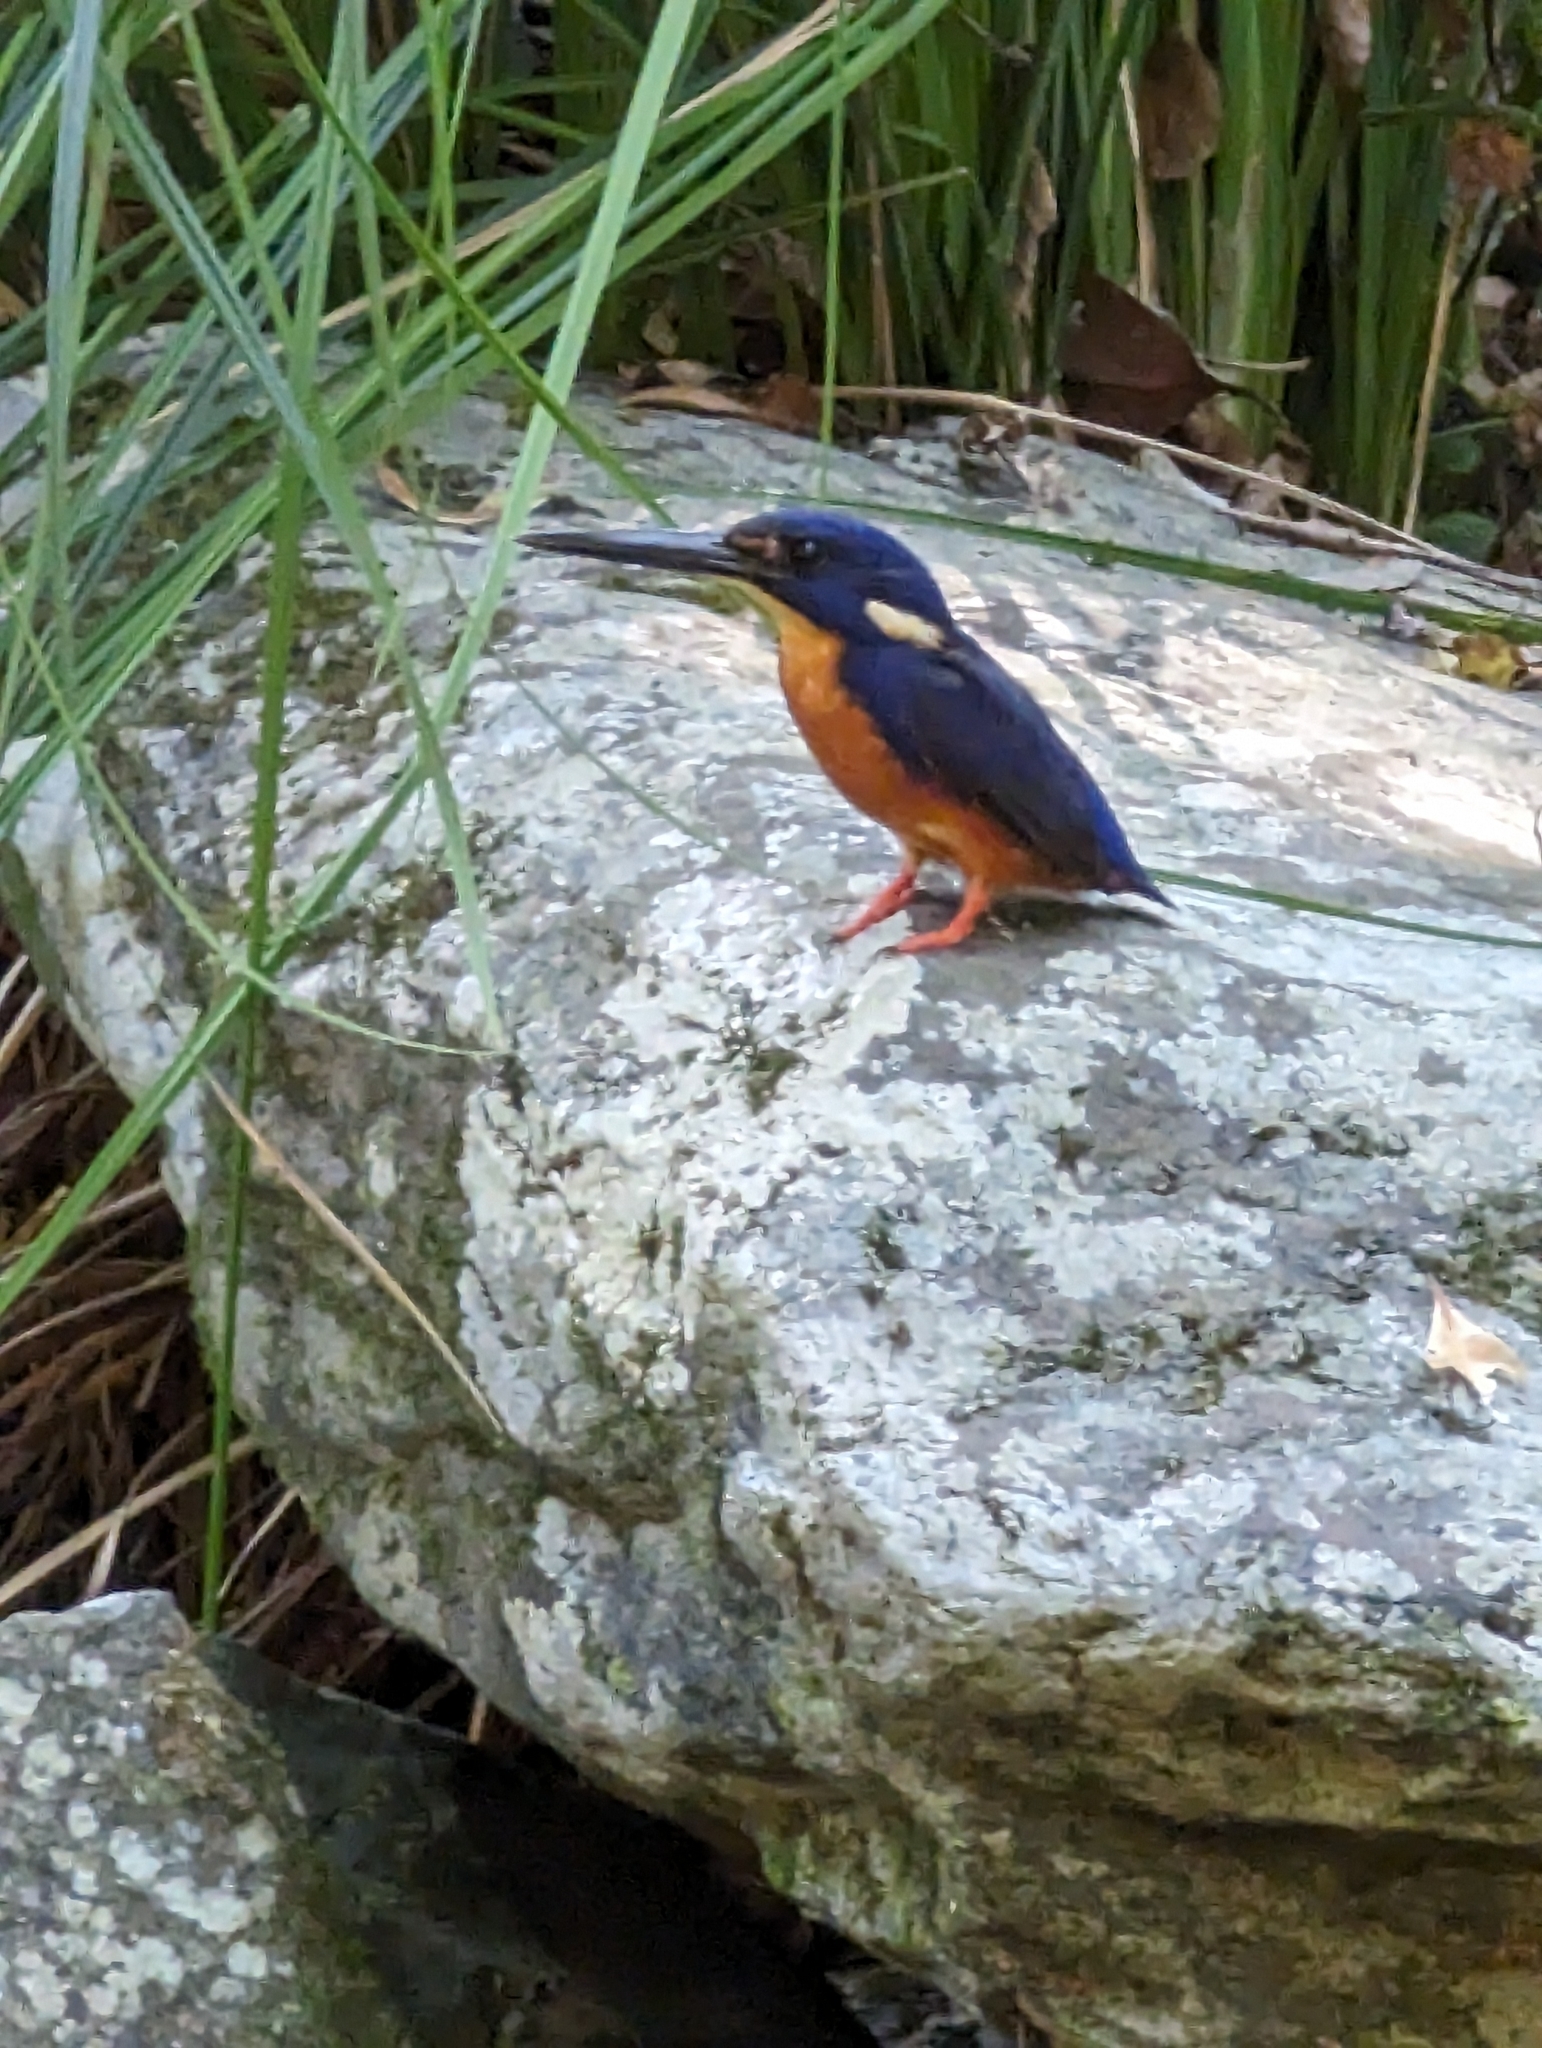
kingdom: Animalia
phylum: Chordata
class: Aves
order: Coraciiformes
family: Alcedinidae
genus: Ceyx
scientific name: Ceyx azureus
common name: Azure kingfisher
